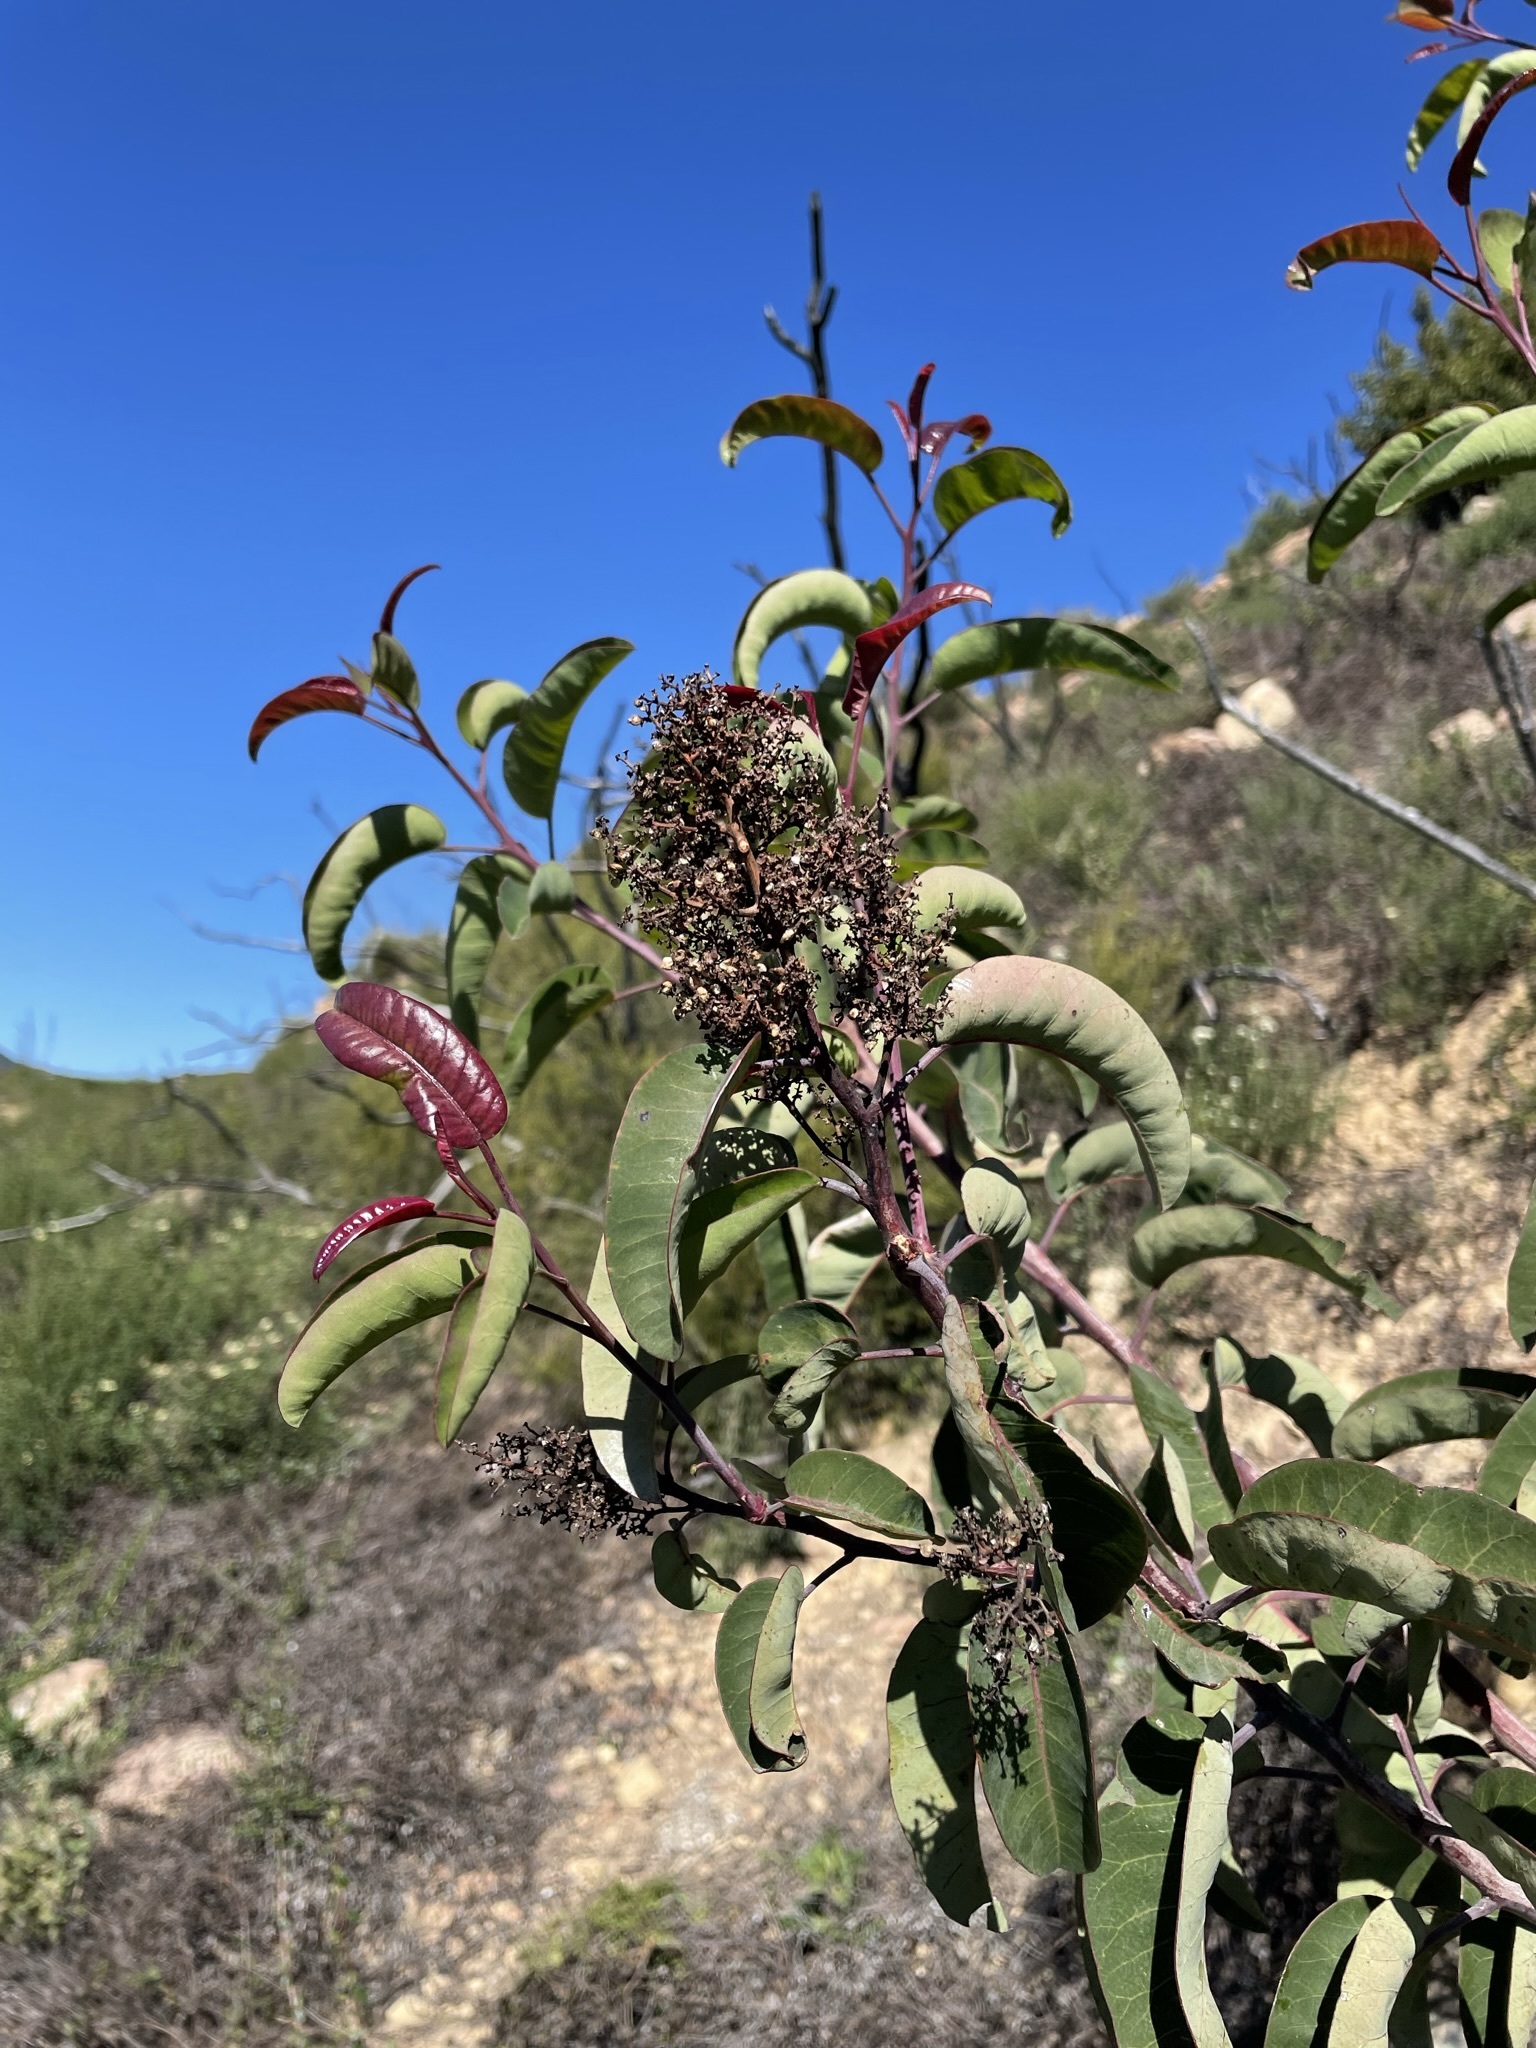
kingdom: Plantae
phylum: Tracheophyta
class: Magnoliopsida
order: Sapindales
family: Anacardiaceae
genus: Malosma
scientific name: Malosma laurina
